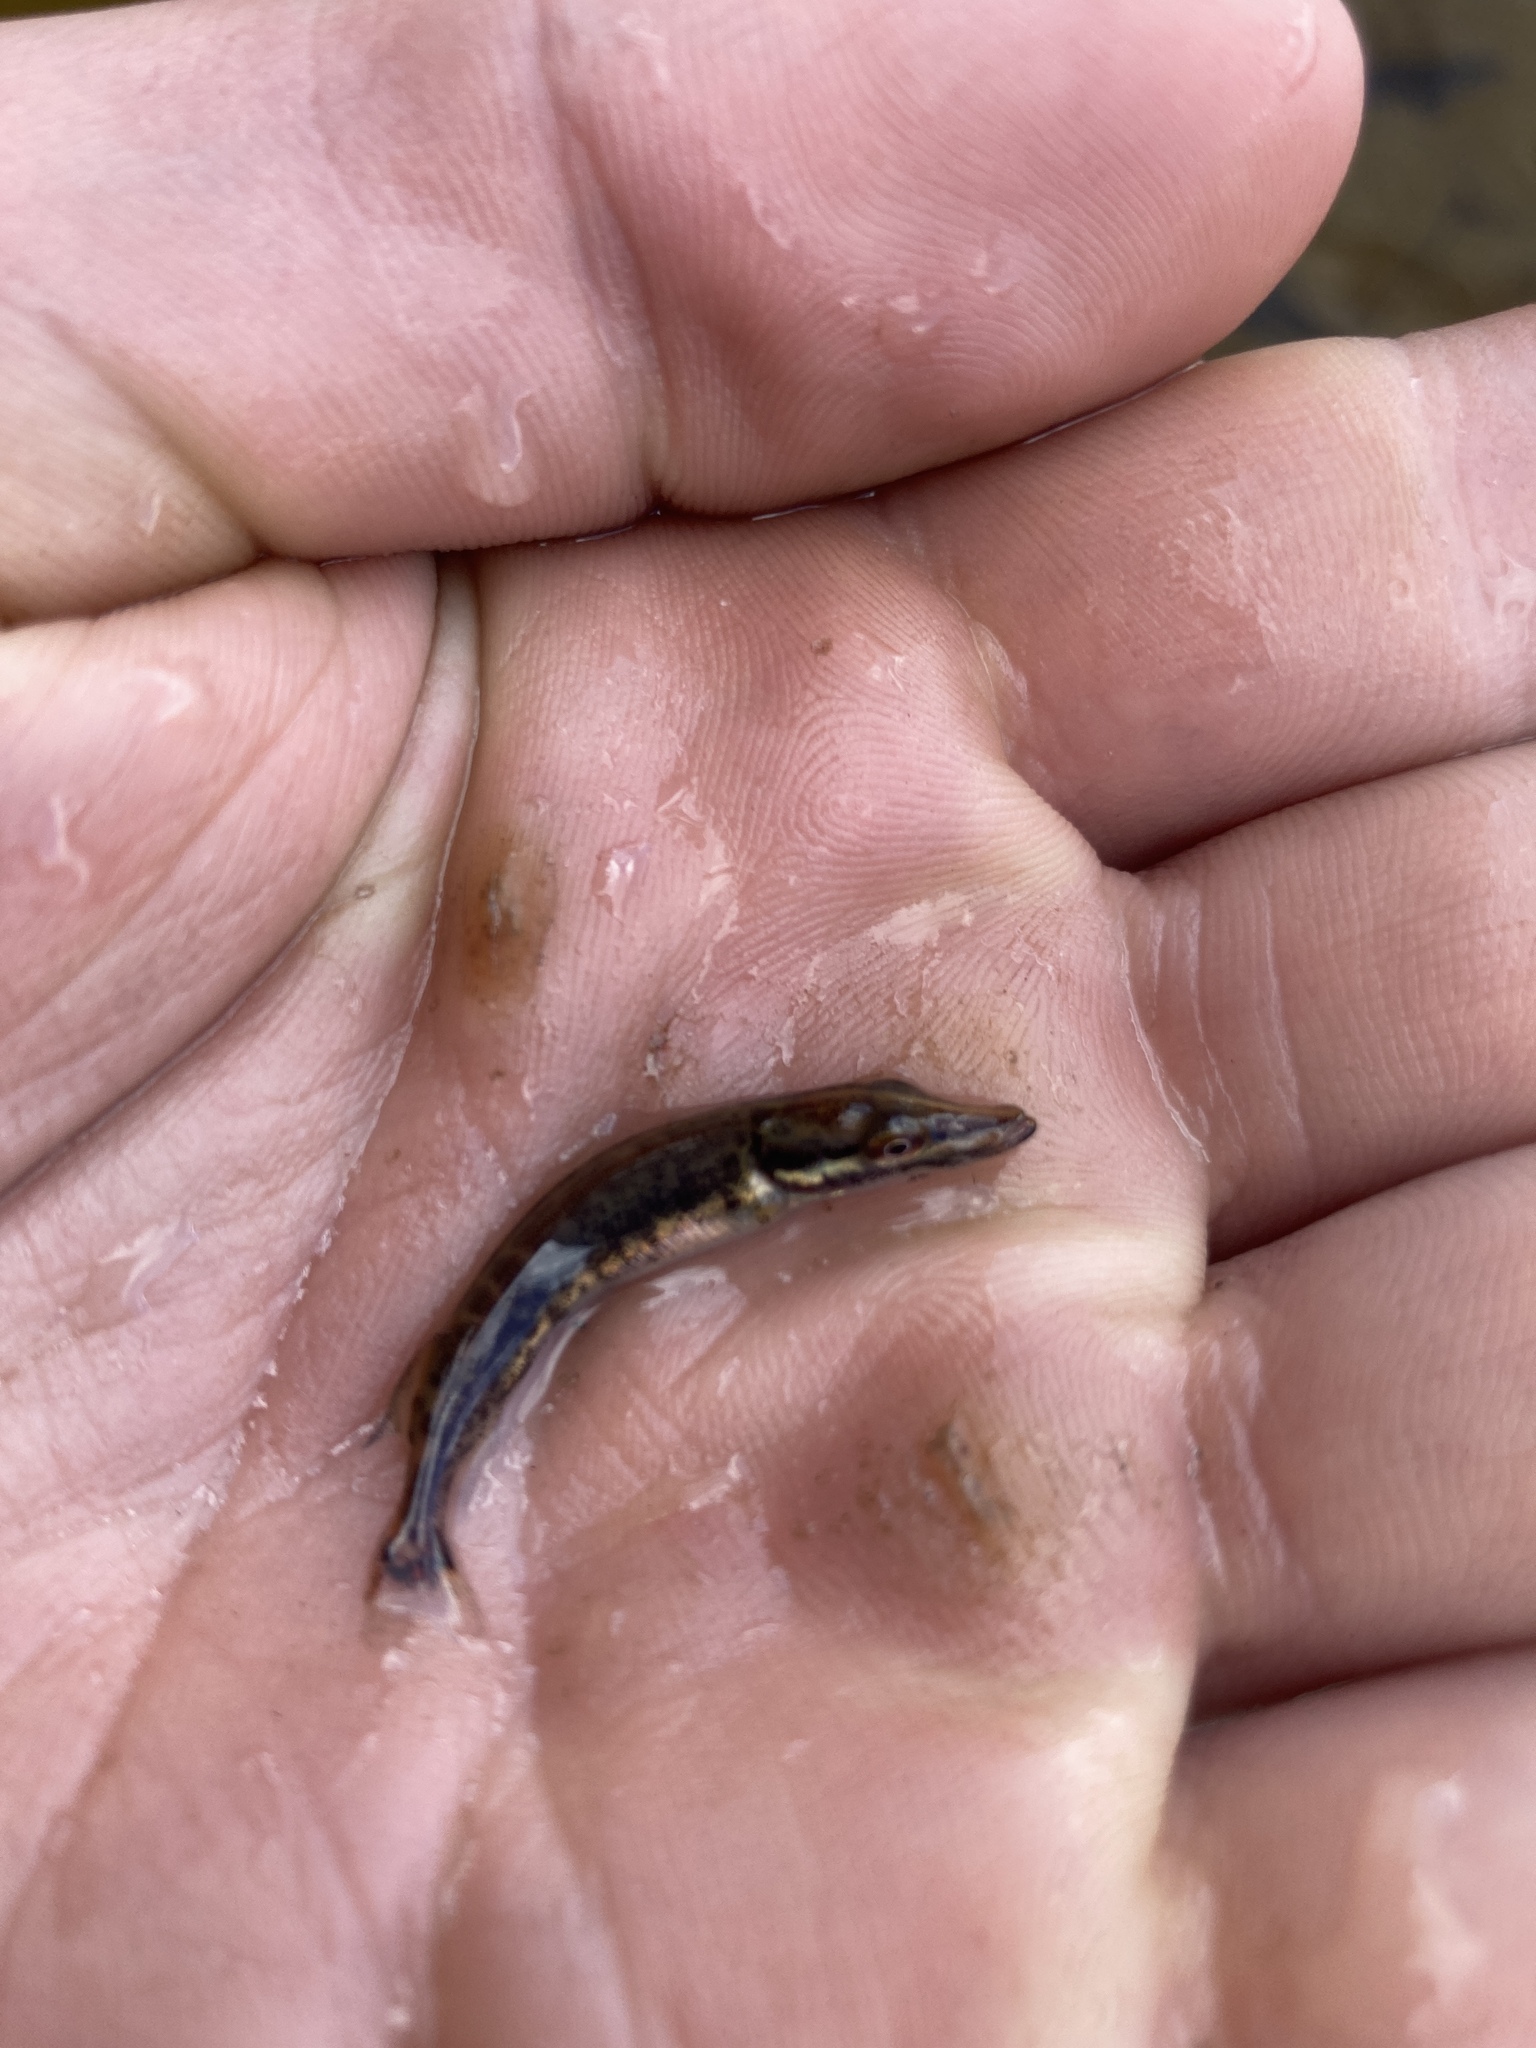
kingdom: Animalia
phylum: Chordata
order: Esociformes
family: Esocidae
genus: Esox
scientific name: Esox lucius
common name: Northern pike
